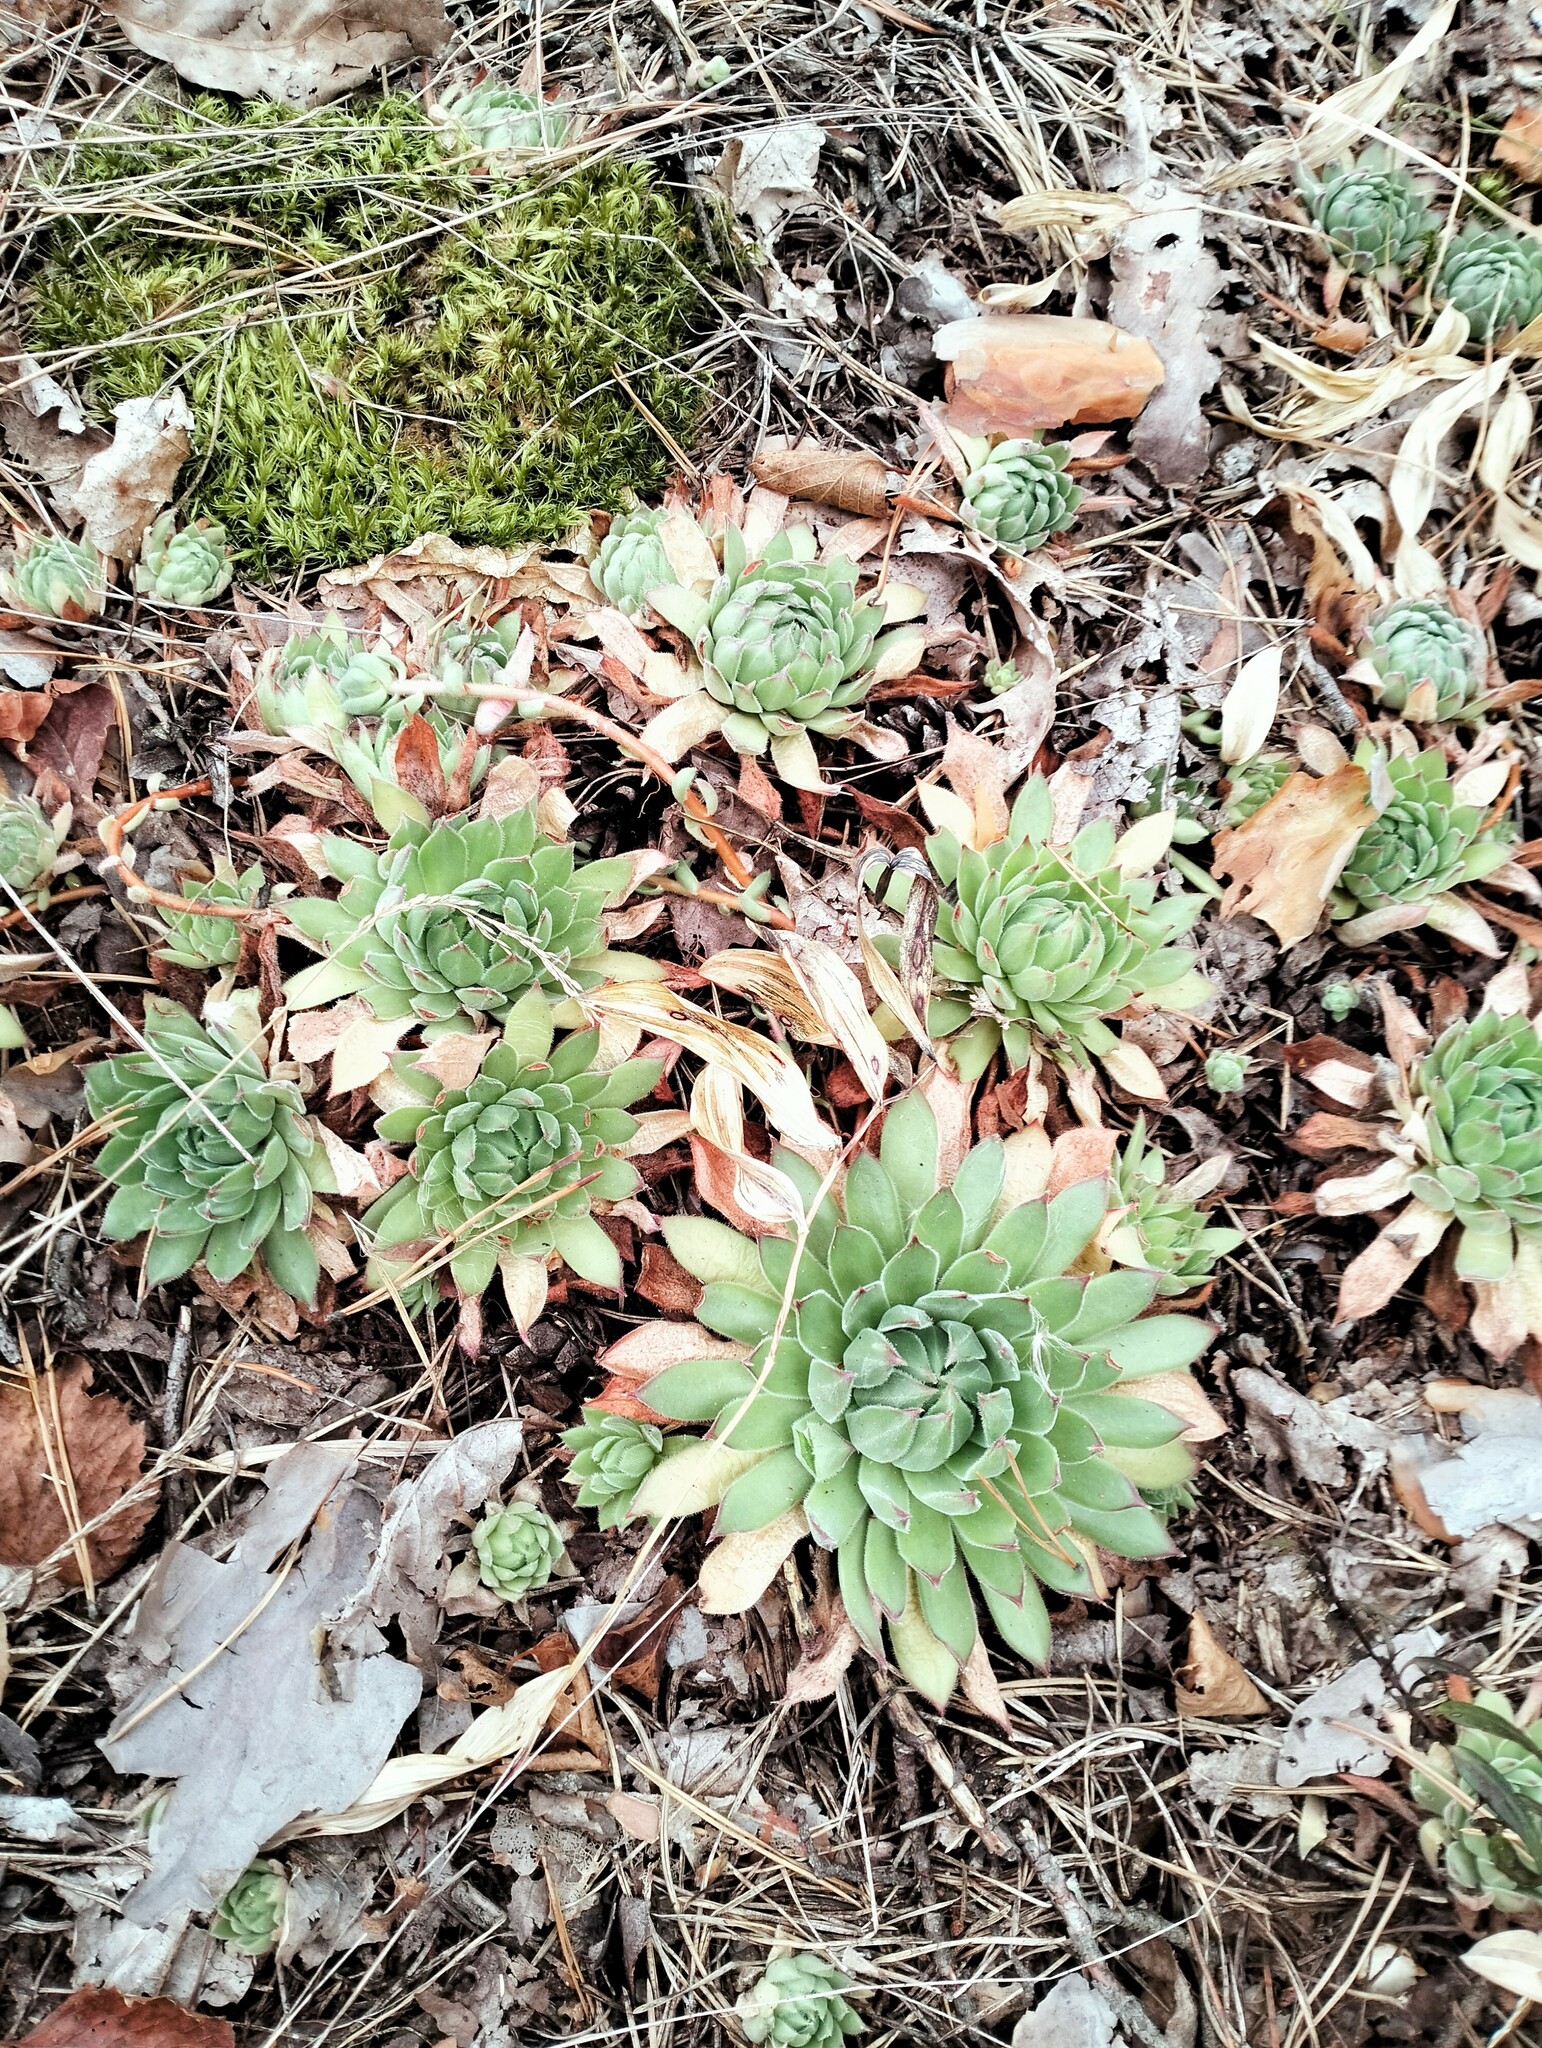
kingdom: Plantae
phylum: Tracheophyta
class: Magnoliopsida
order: Saxifragales
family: Crassulaceae
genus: Sempervivum
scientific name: Sempervivum ruthenicum
